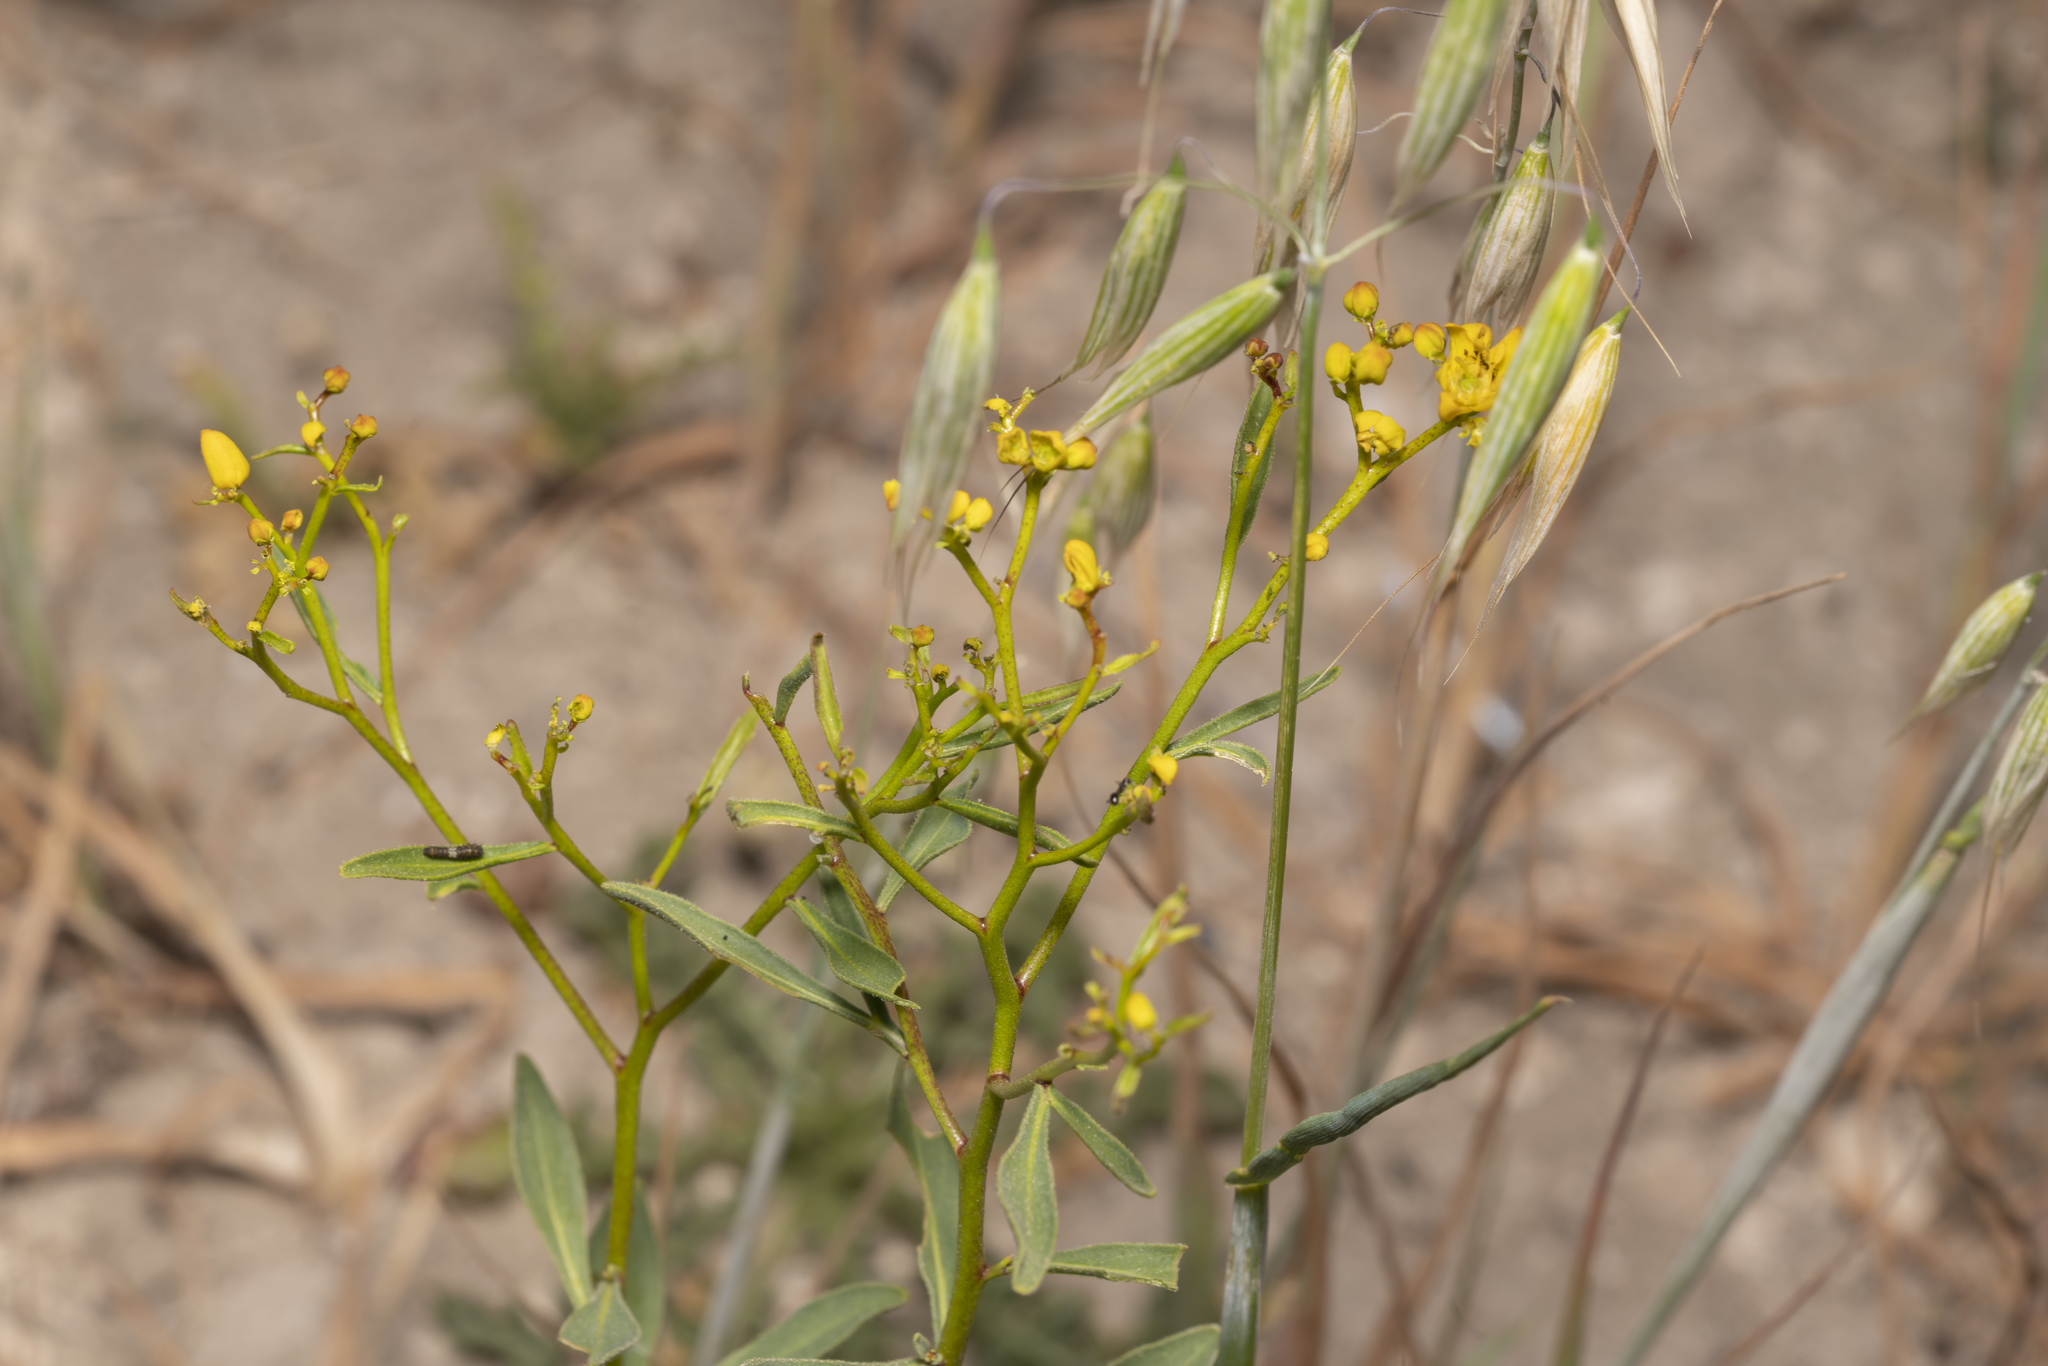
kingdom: Plantae
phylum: Tracheophyta
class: Magnoliopsida
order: Sapindales
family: Rutaceae
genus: Haplophyllum
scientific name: Haplophyllum buxbaumii
